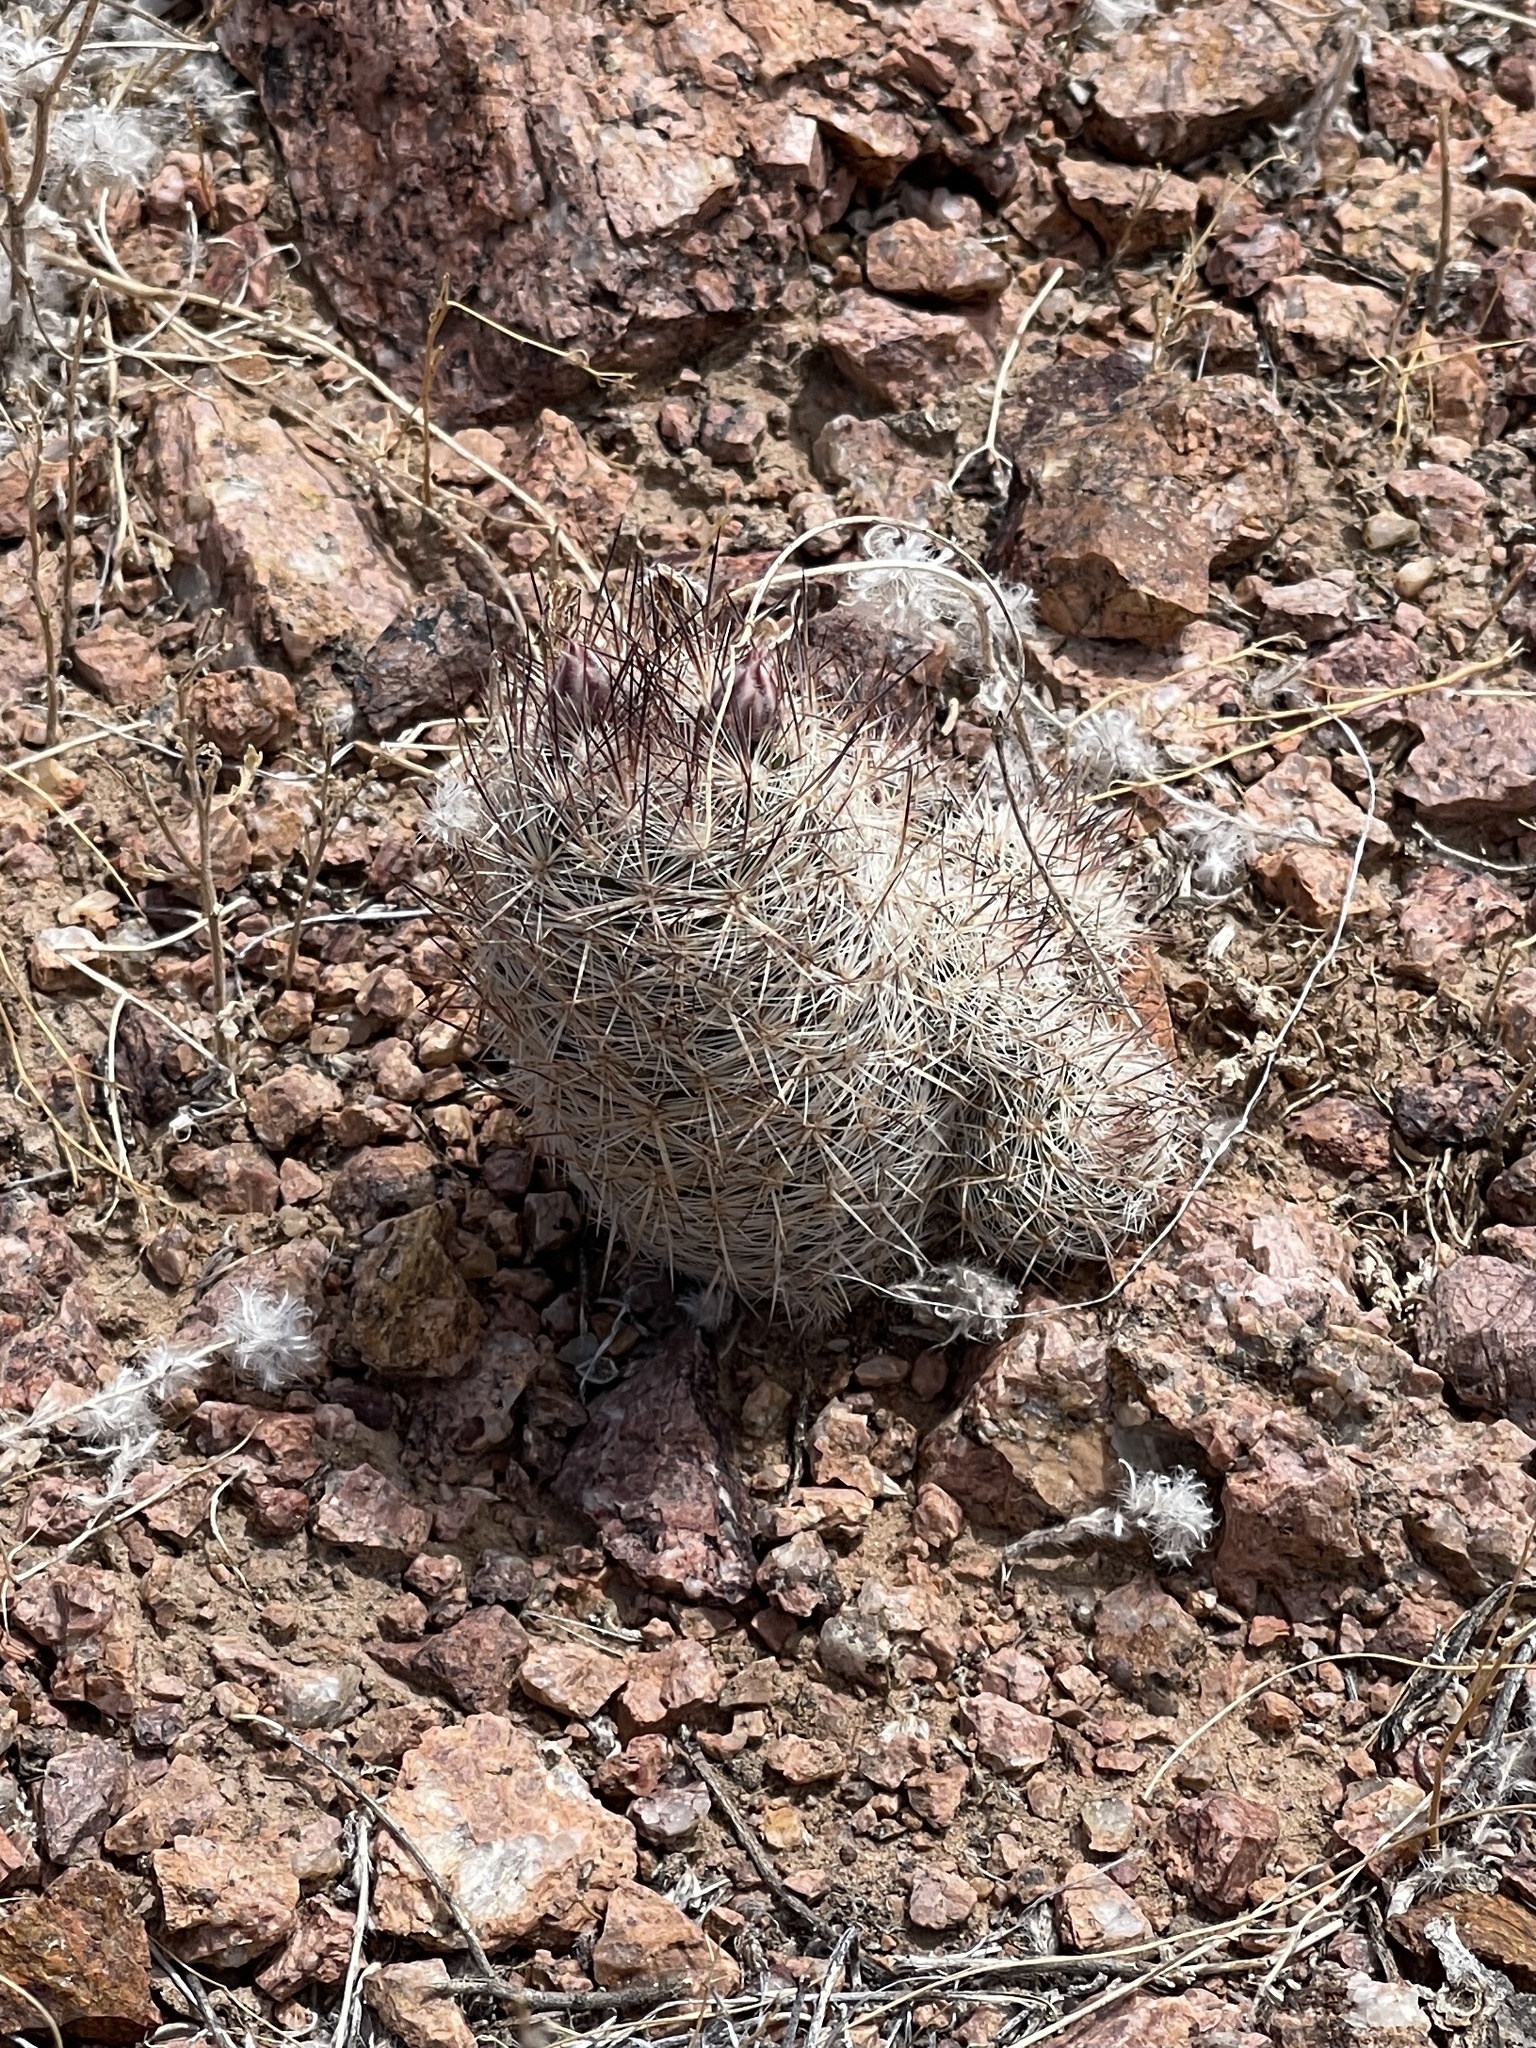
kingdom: Plantae
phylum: Tracheophyta
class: Magnoliopsida
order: Caryophyllales
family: Cactaceae
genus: Pelecyphora
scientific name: Pelecyphora tuberculosa
